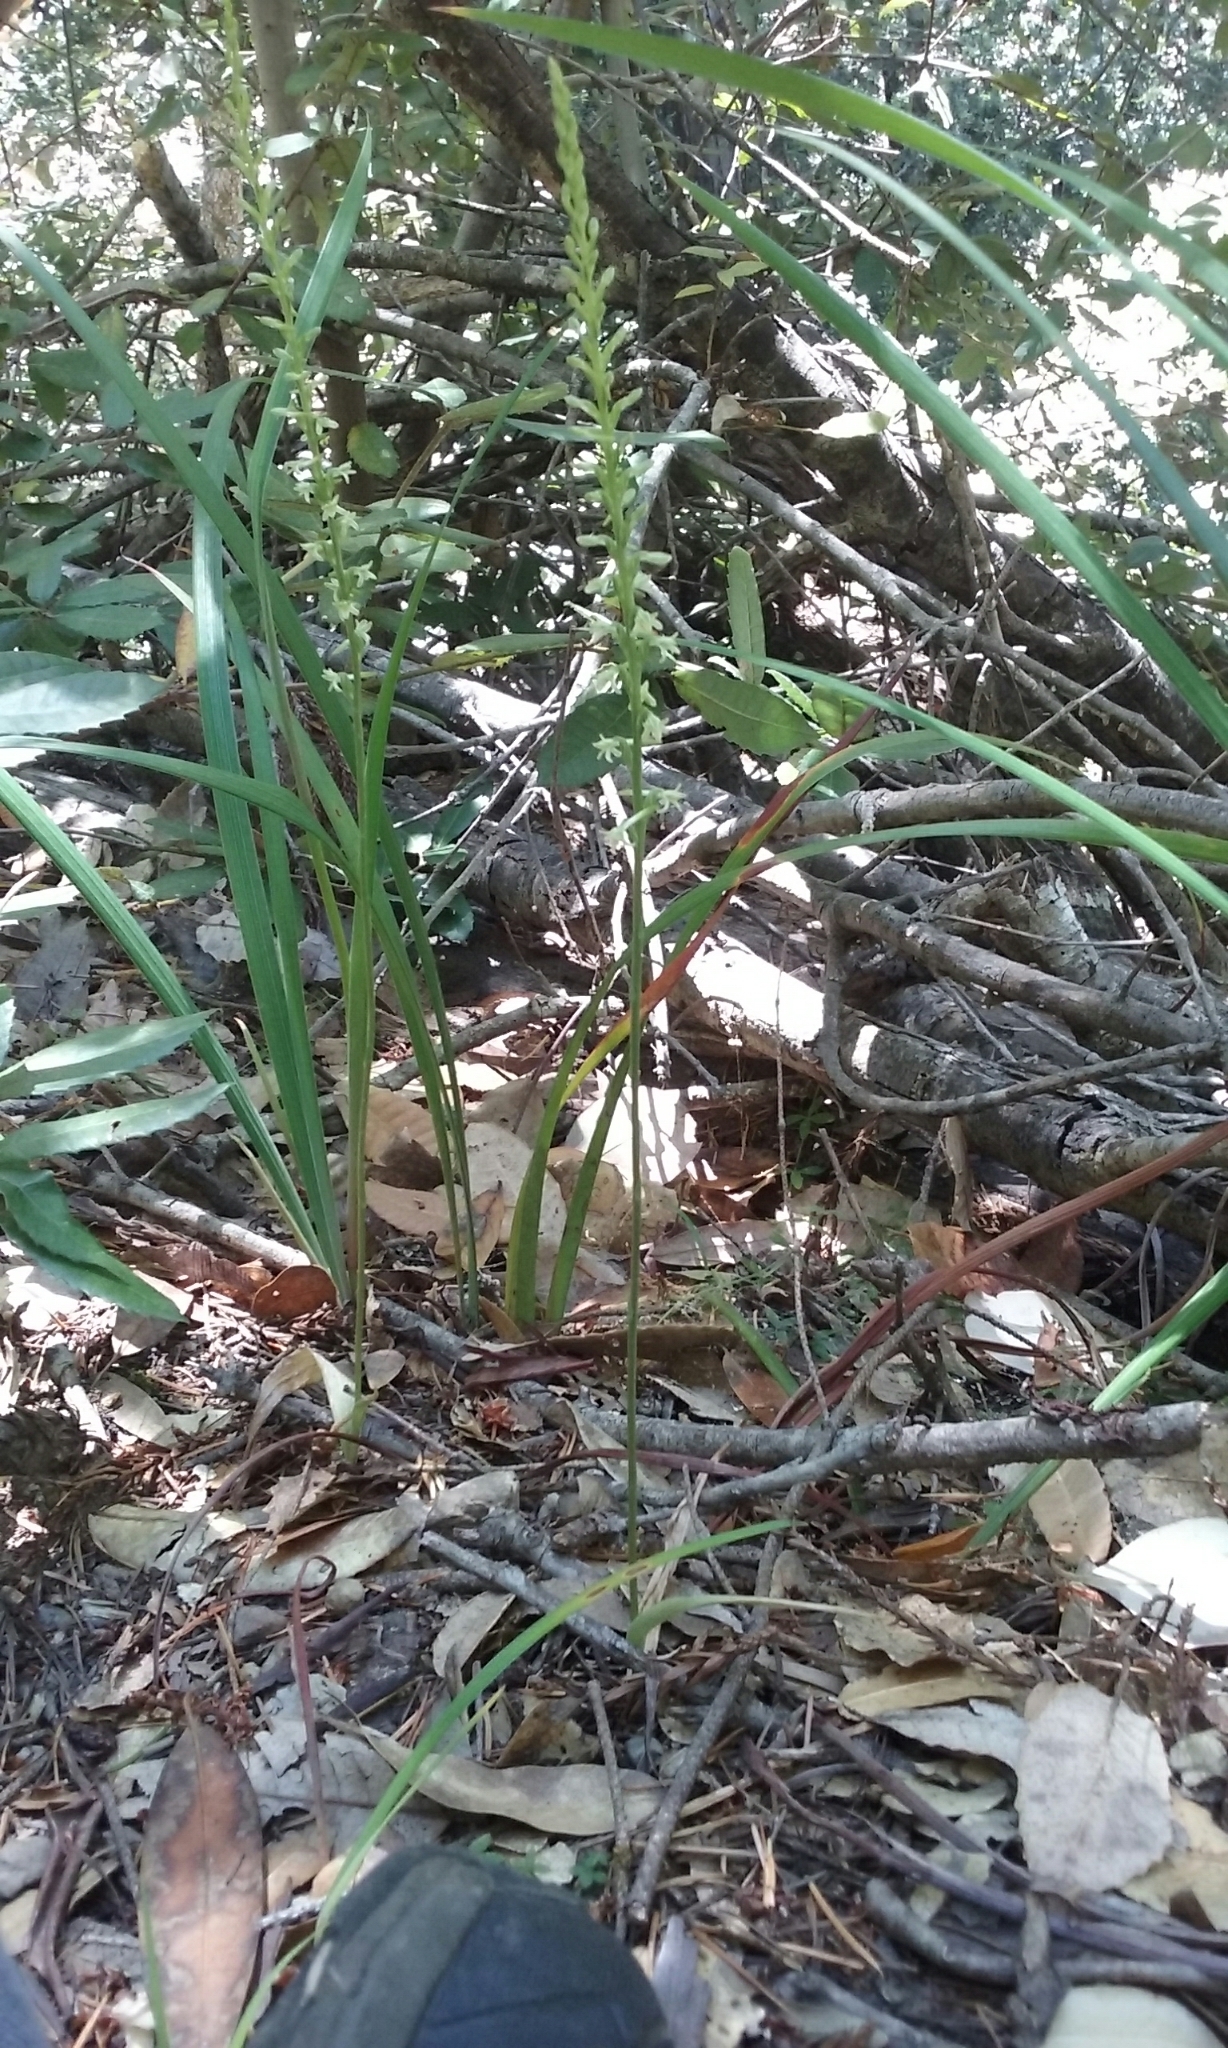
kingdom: Plantae
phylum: Tracheophyta
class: Liliopsida
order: Asparagales
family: Orchidaceae
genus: Platanthera
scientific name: Platanthera transversa
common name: Royal rein orchid
